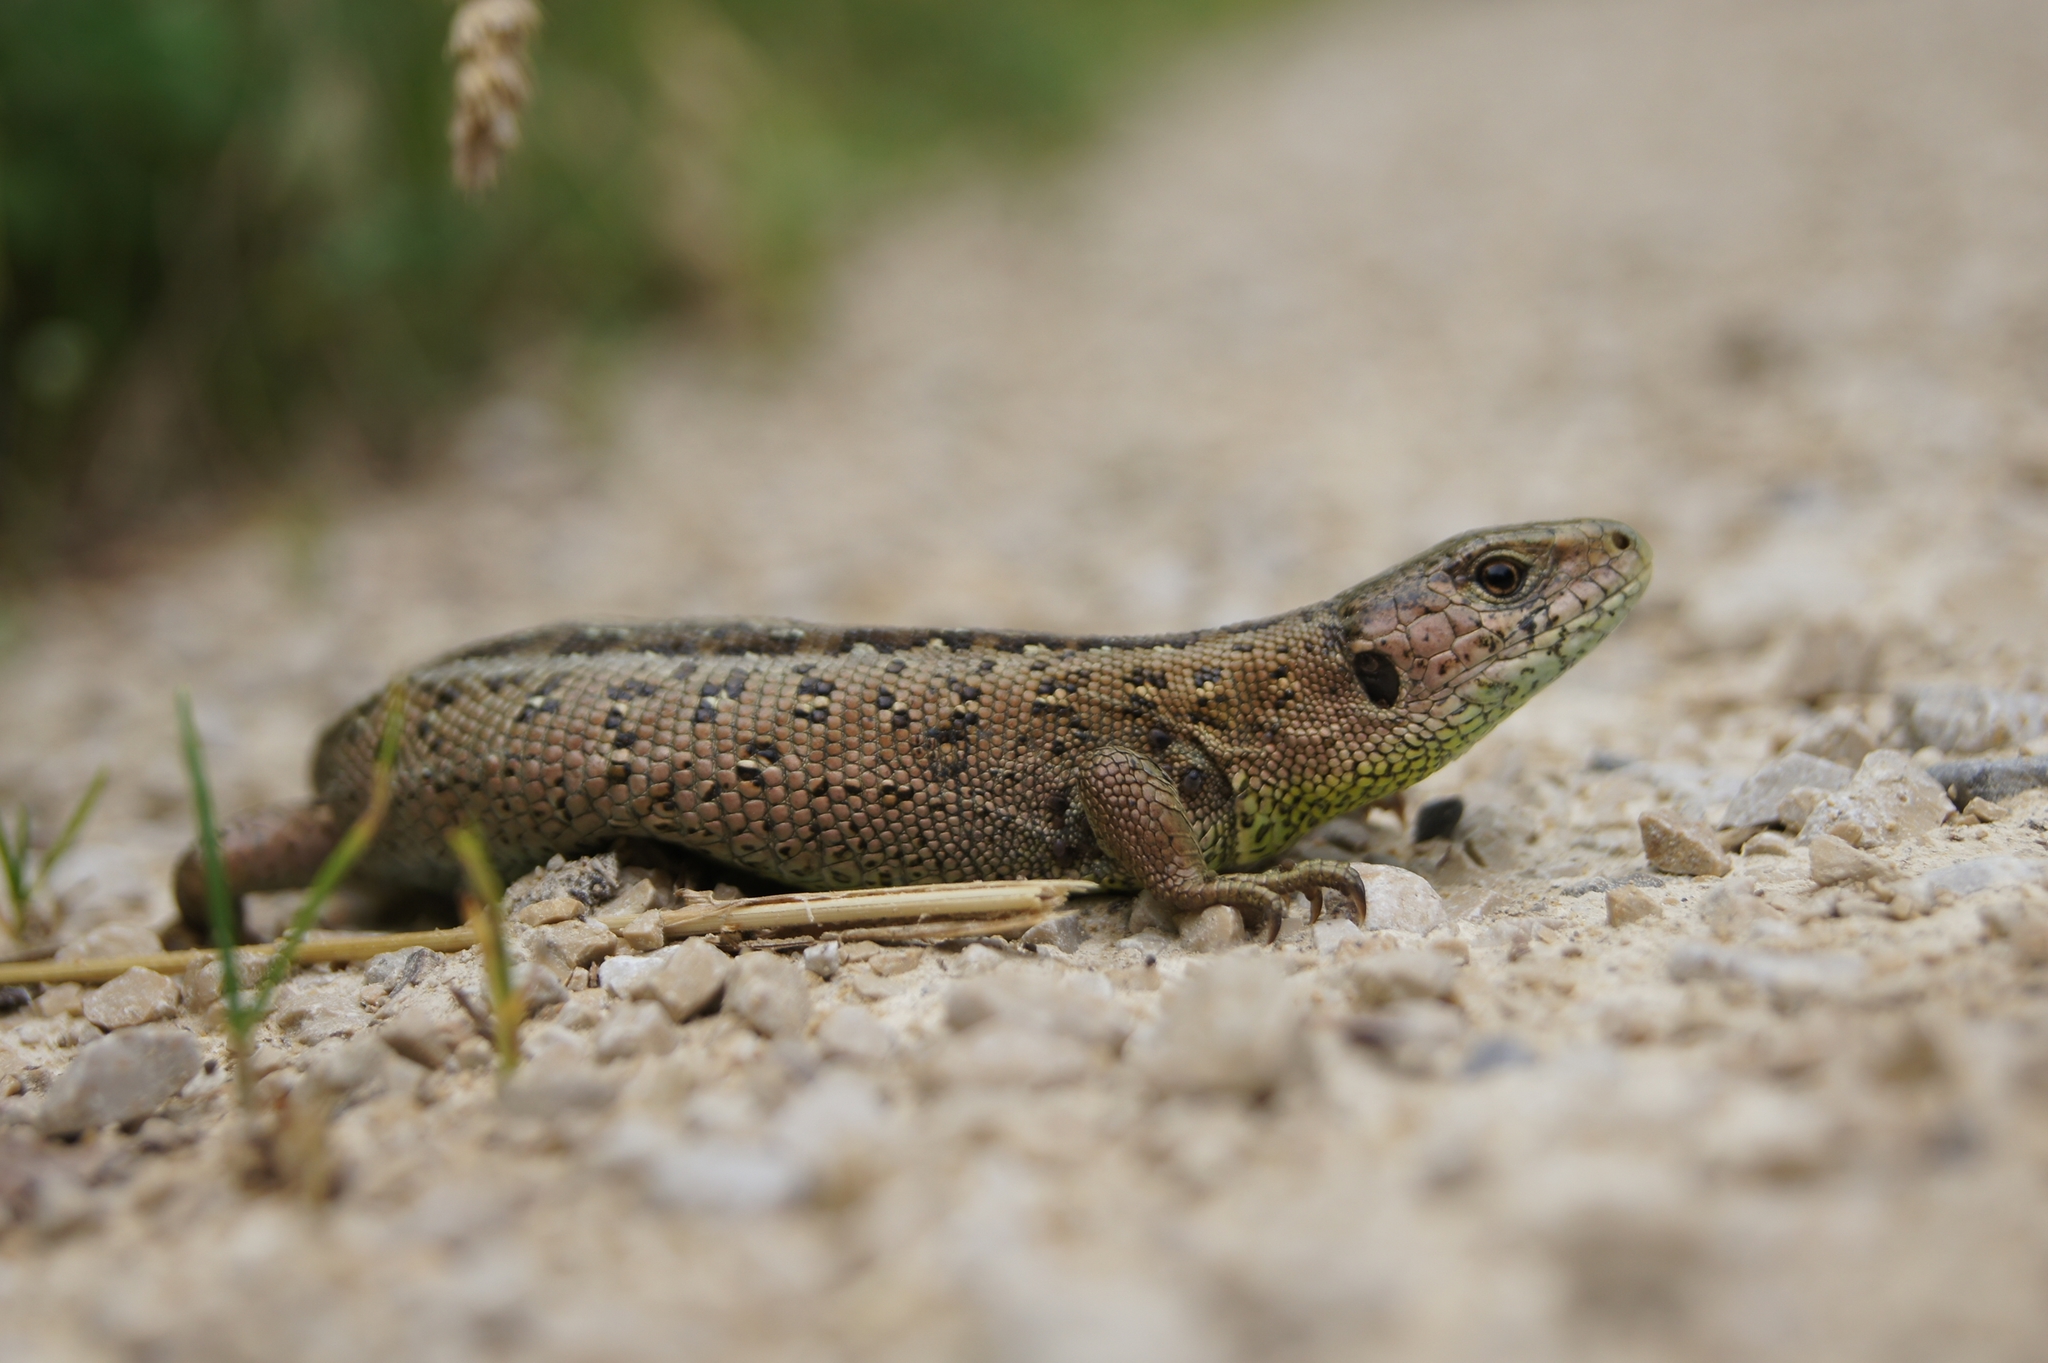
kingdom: Animalia
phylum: Chordata
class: Squamata
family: Lacertidae
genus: Lacerta
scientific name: Lacerta agilis
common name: Sand lizard
